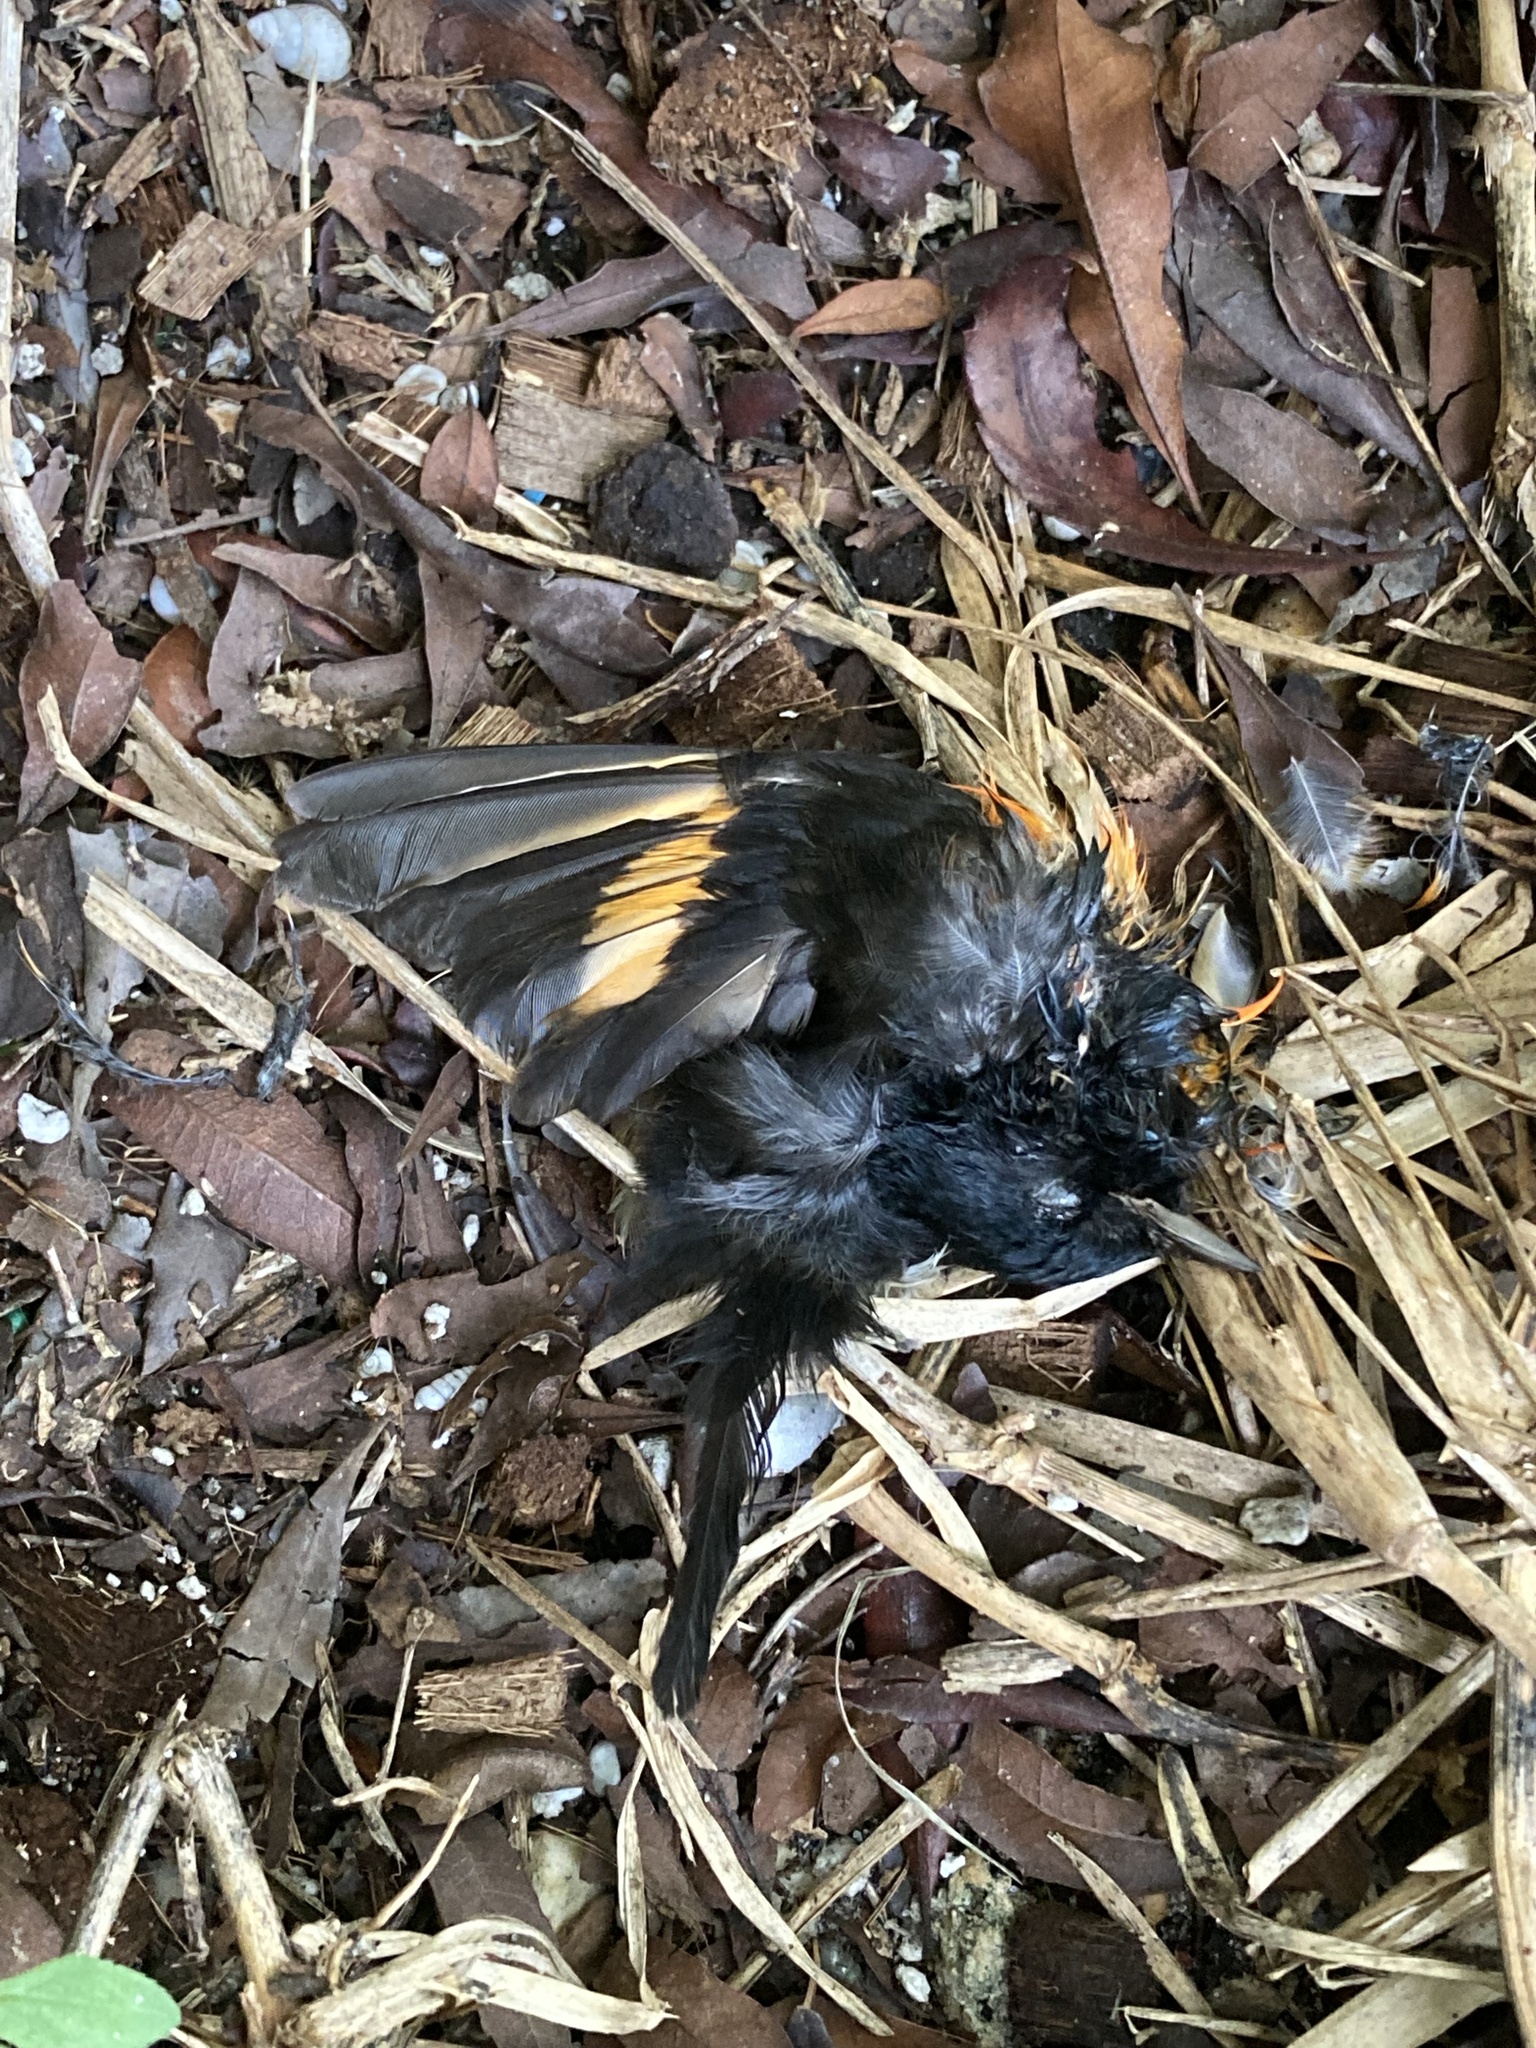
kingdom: Animalia
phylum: Chordata
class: Aves
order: Passeriformes
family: Parulidae
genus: Setophaga
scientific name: Setophaga ruticilla
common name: American redstart
